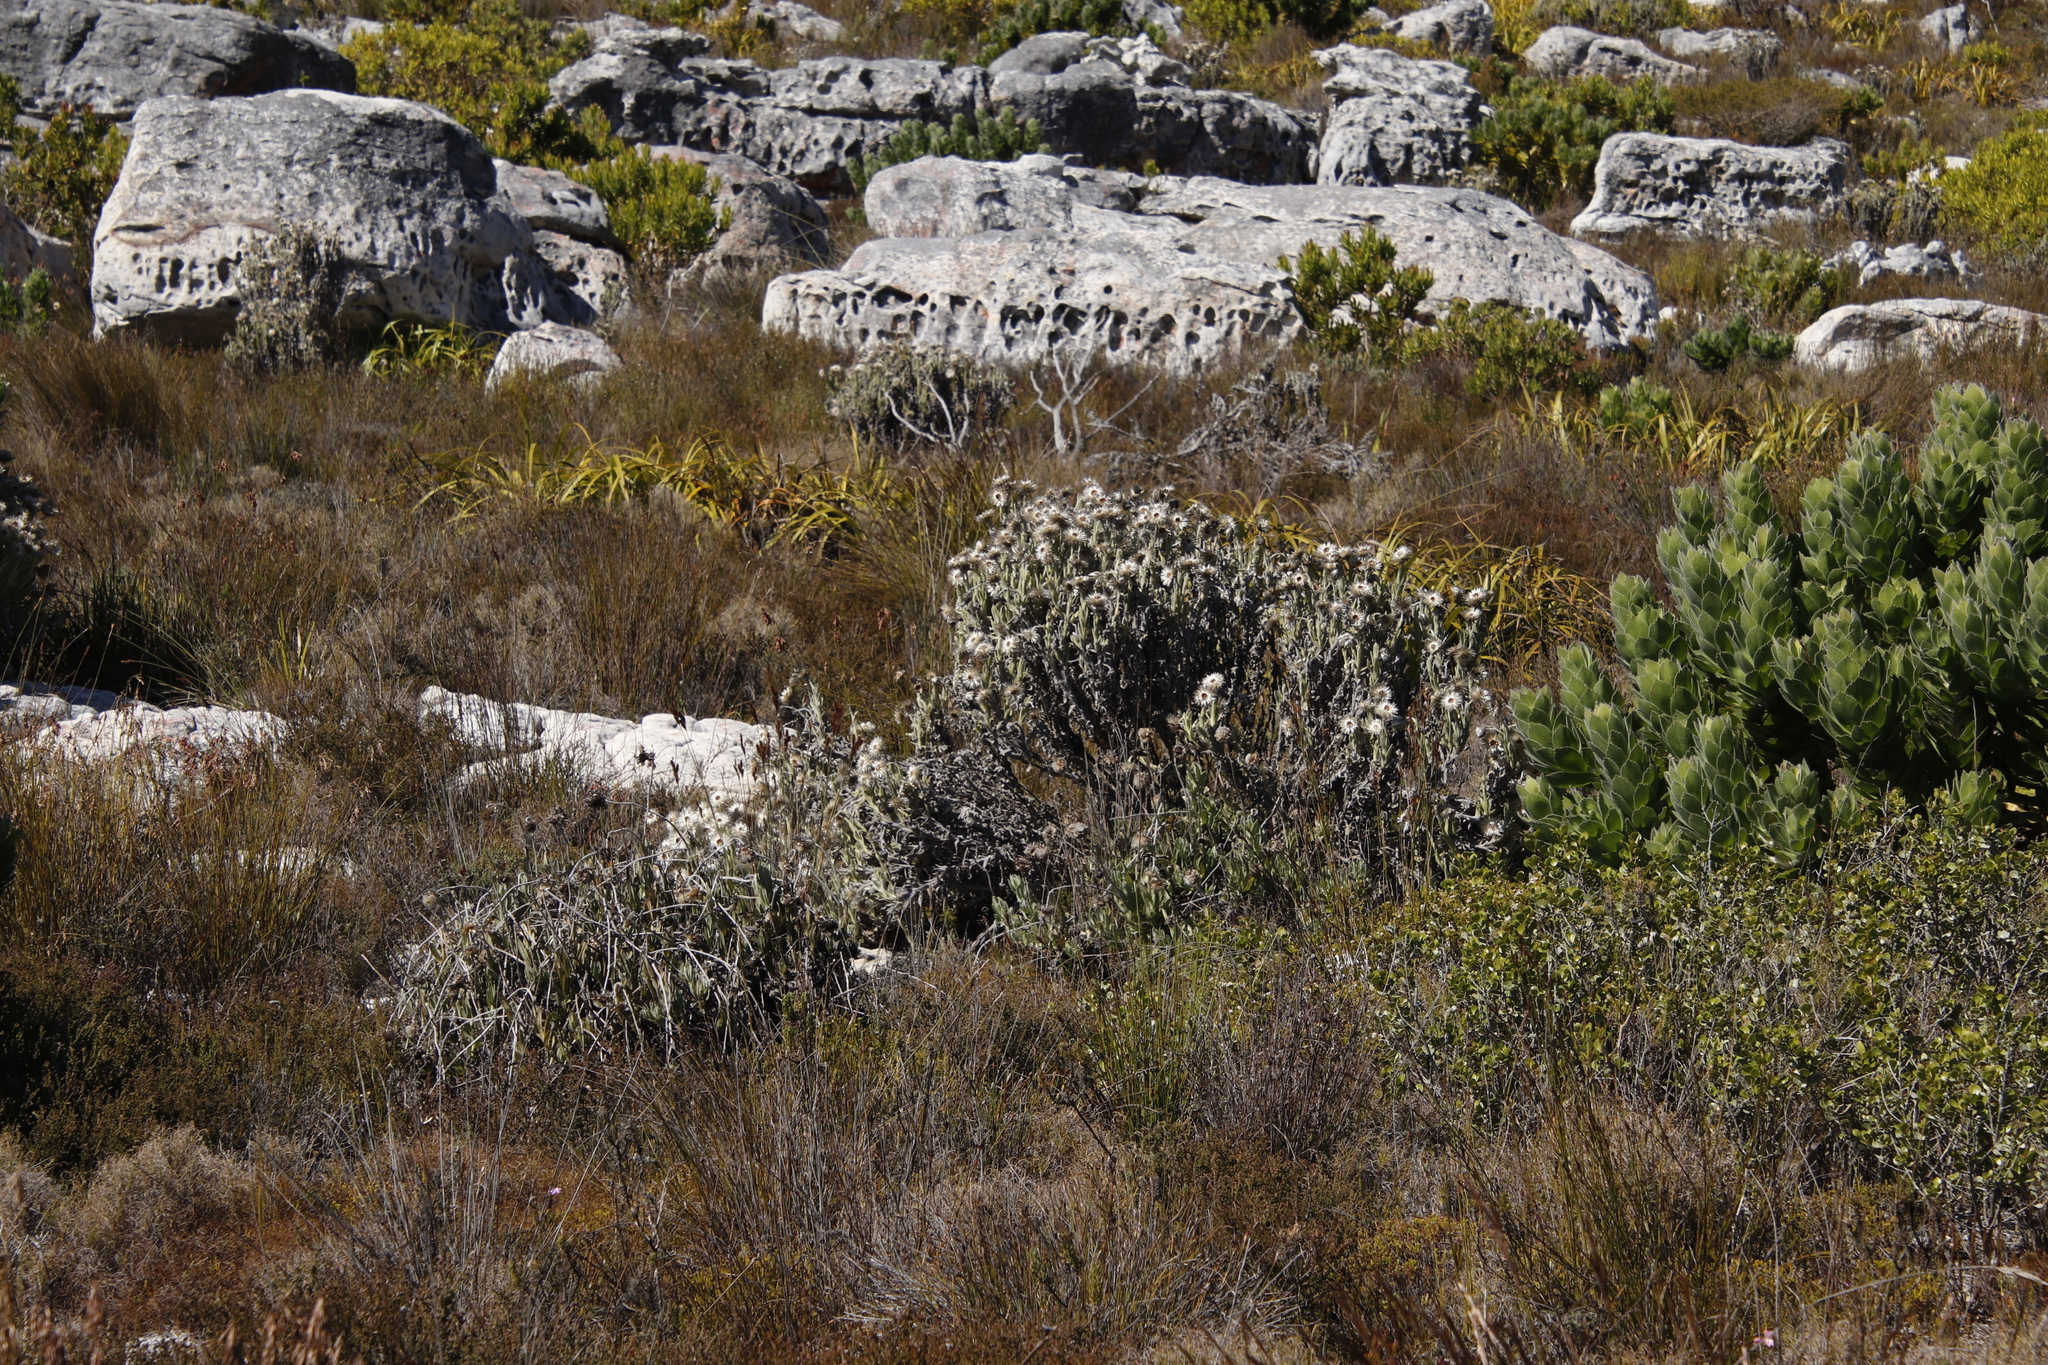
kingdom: Plantae
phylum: Tracheophyta
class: Magnoliopsida
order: Asterales
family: Asteraceae
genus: Syncarpha
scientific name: Syncarpha vestita
